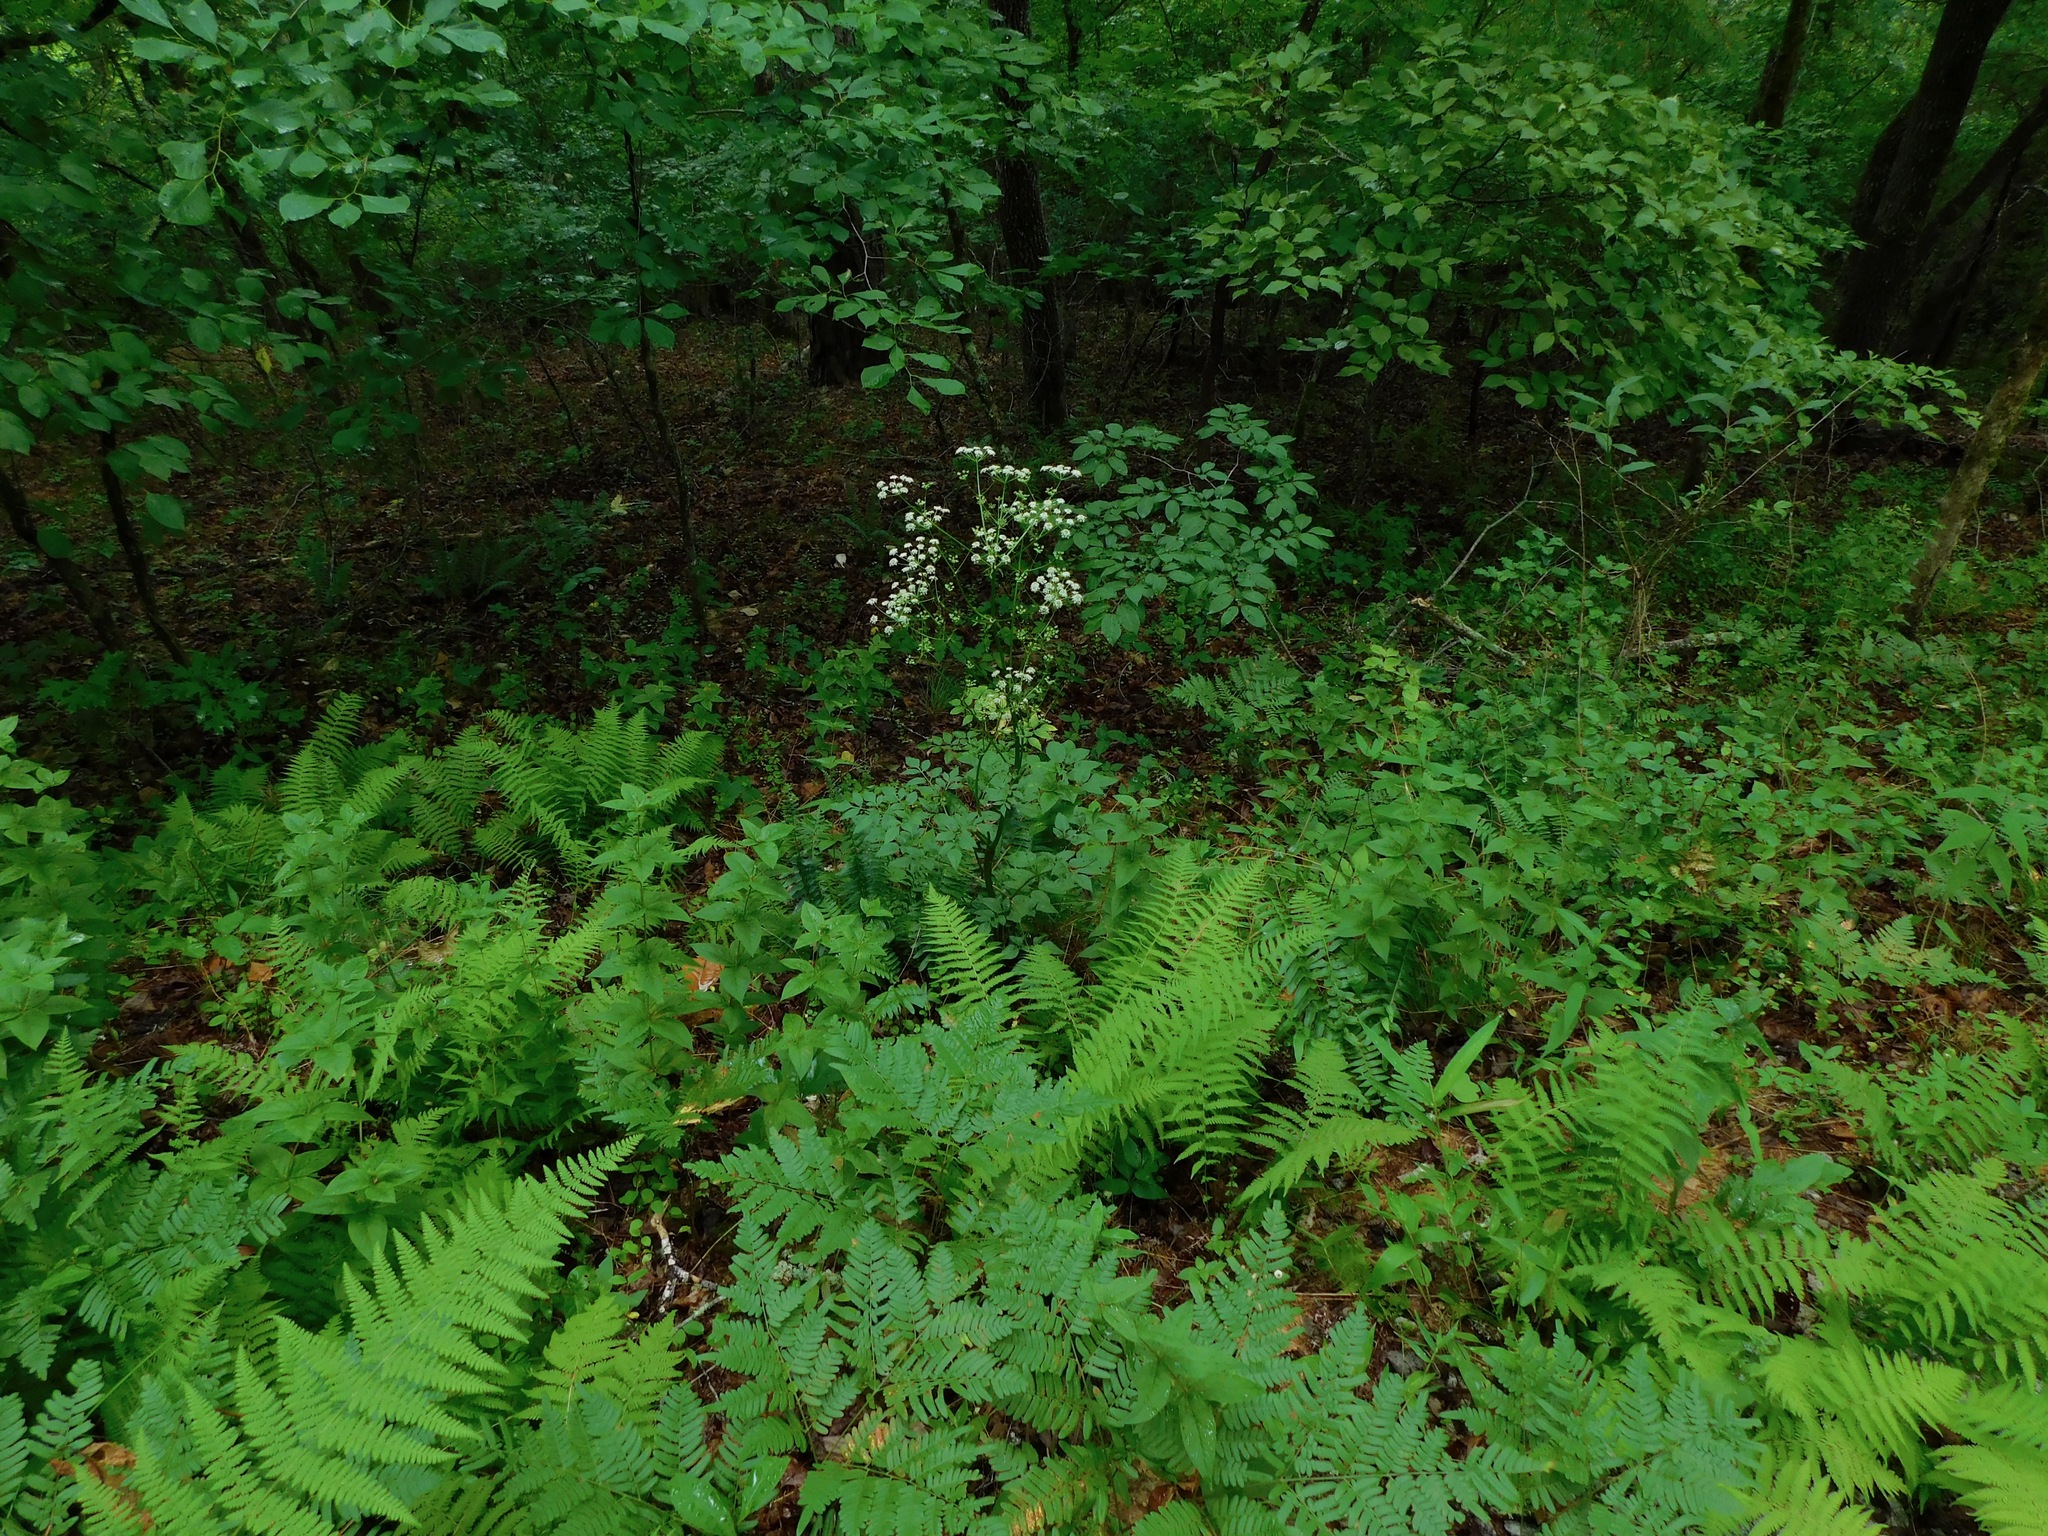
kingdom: Plantae
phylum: Tracheophyta
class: Magnoliopsida
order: Apiales
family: Apiaceae
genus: Ligusticum
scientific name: Ligusticum canadense
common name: American lovage
